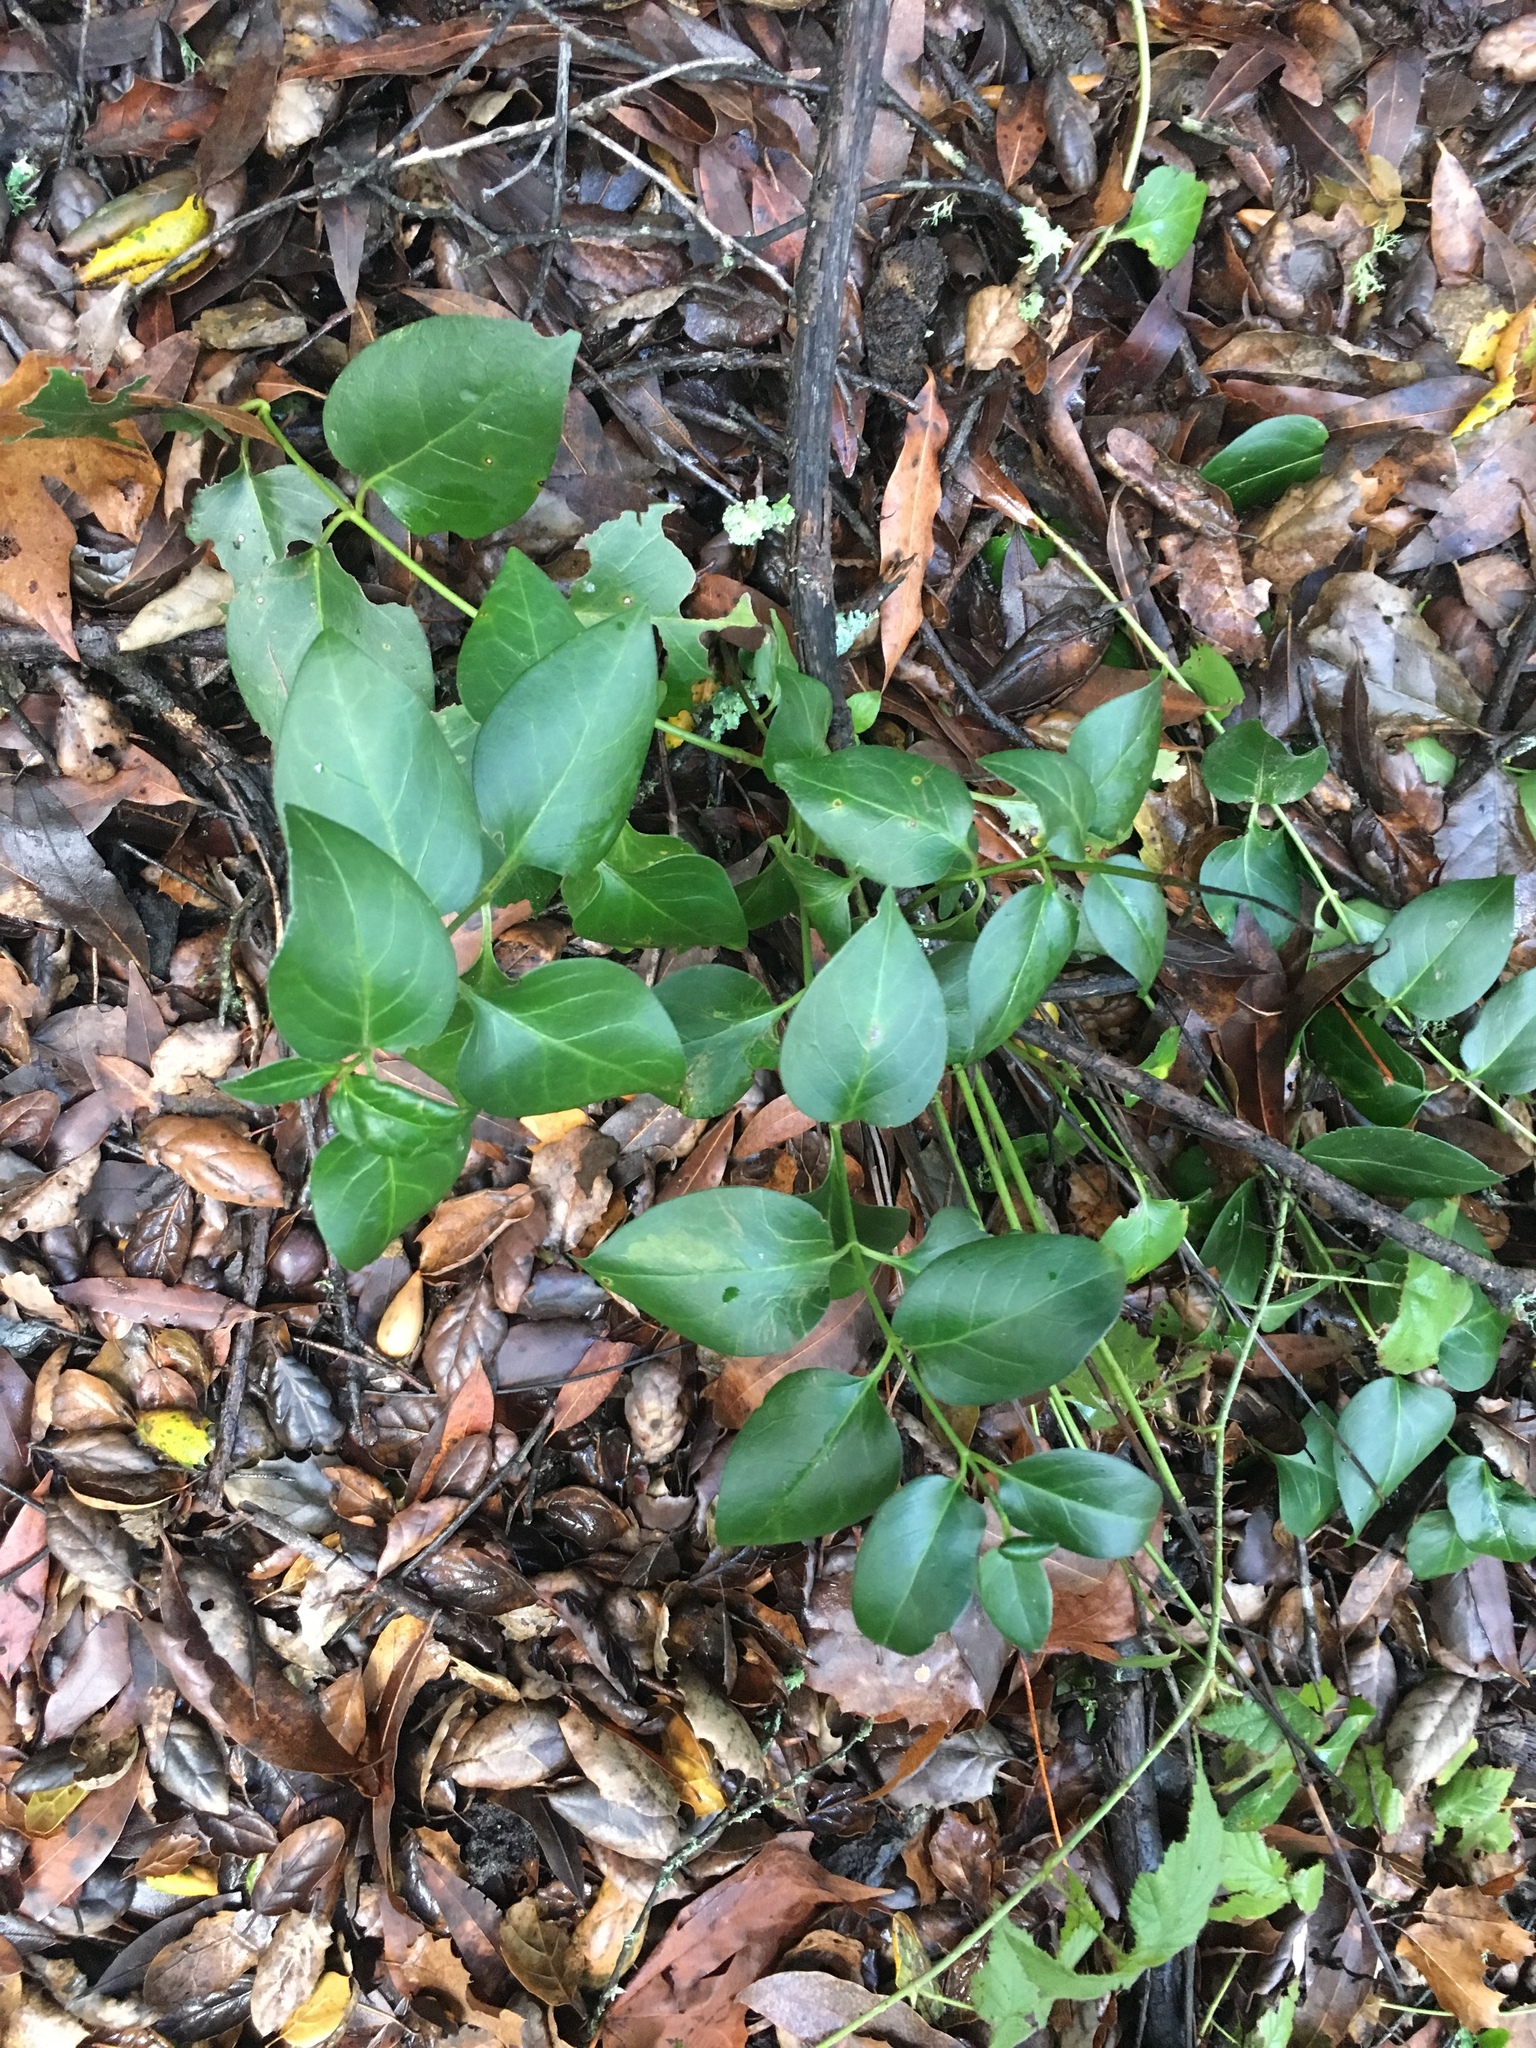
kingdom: Plantae
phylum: Tracheophyta
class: Magnoliopsida
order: Gentianales
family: Apocynaceae
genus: Vinca
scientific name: Vinca major
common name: Greater periwinkle
